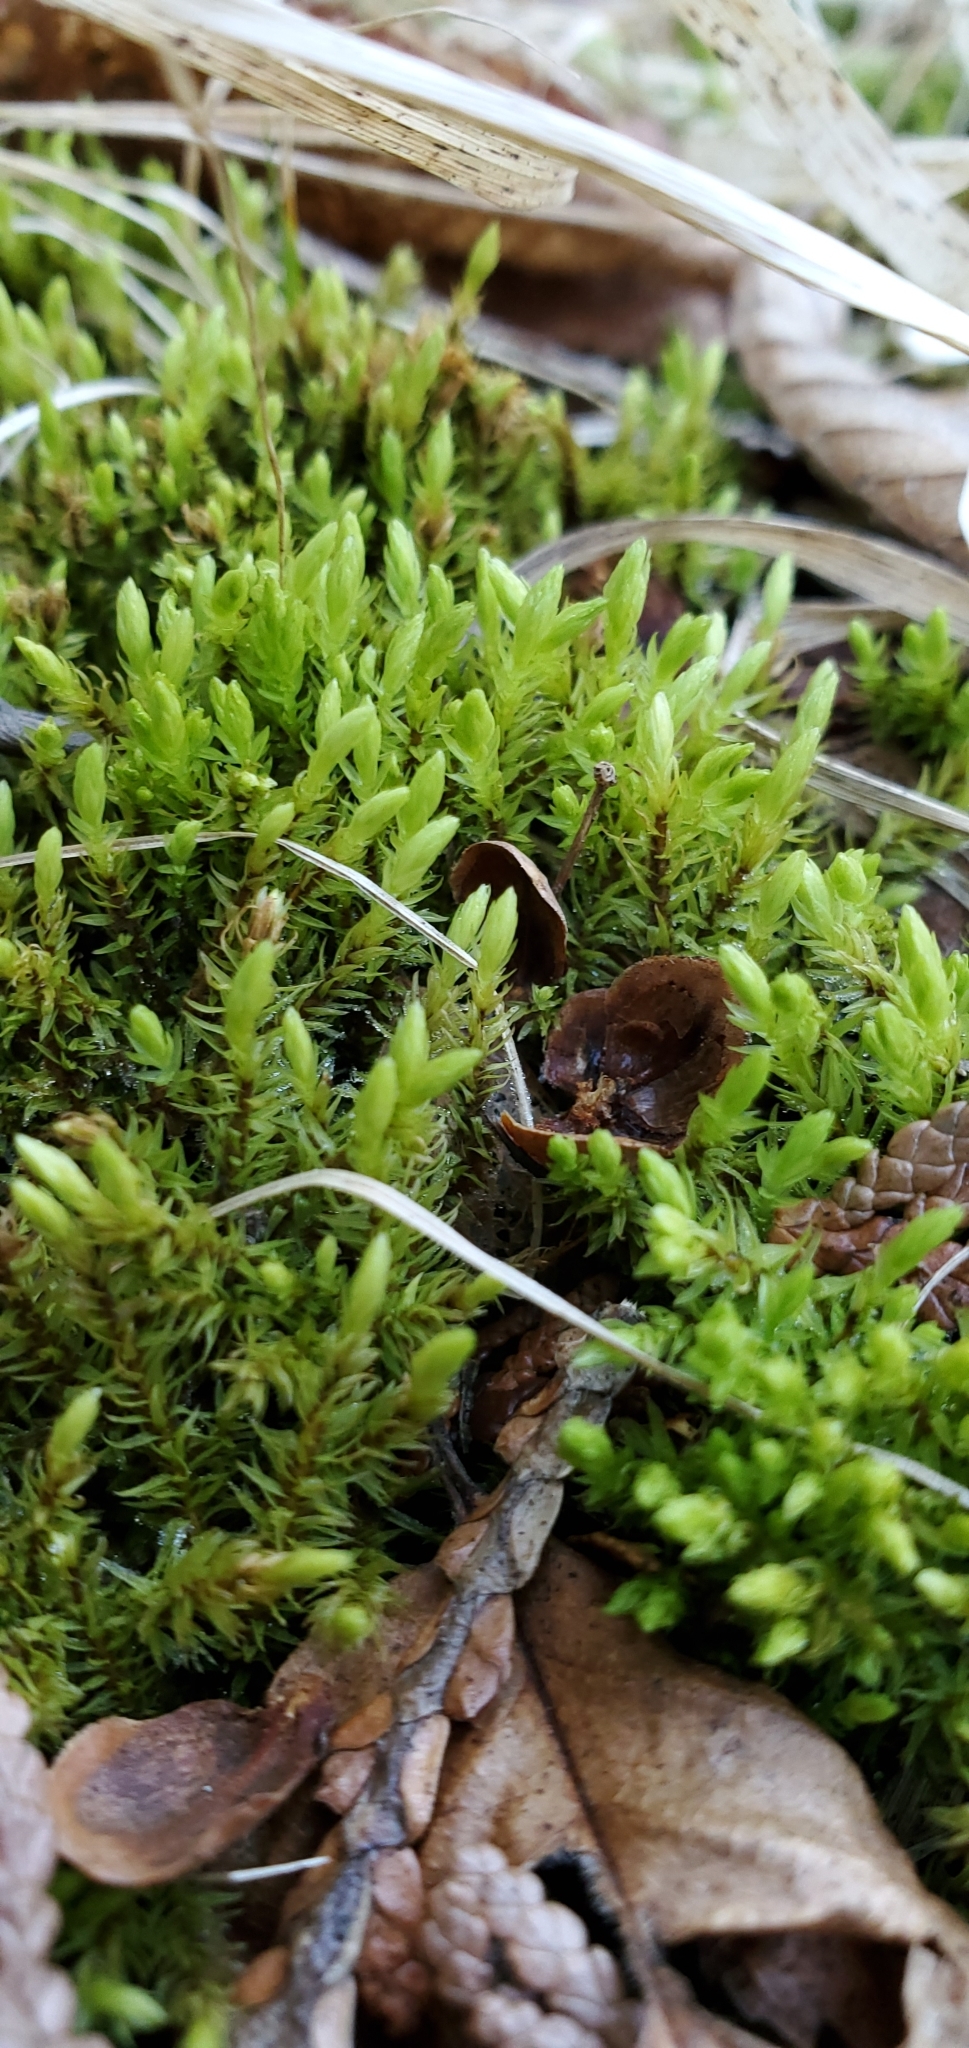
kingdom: Plantae
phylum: Bryophyta
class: Bryopsida
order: Aulacomniales
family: Aulacomniaceae
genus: Aulacomnium
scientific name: Aulacomnium palustre
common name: Bog groove-moss
